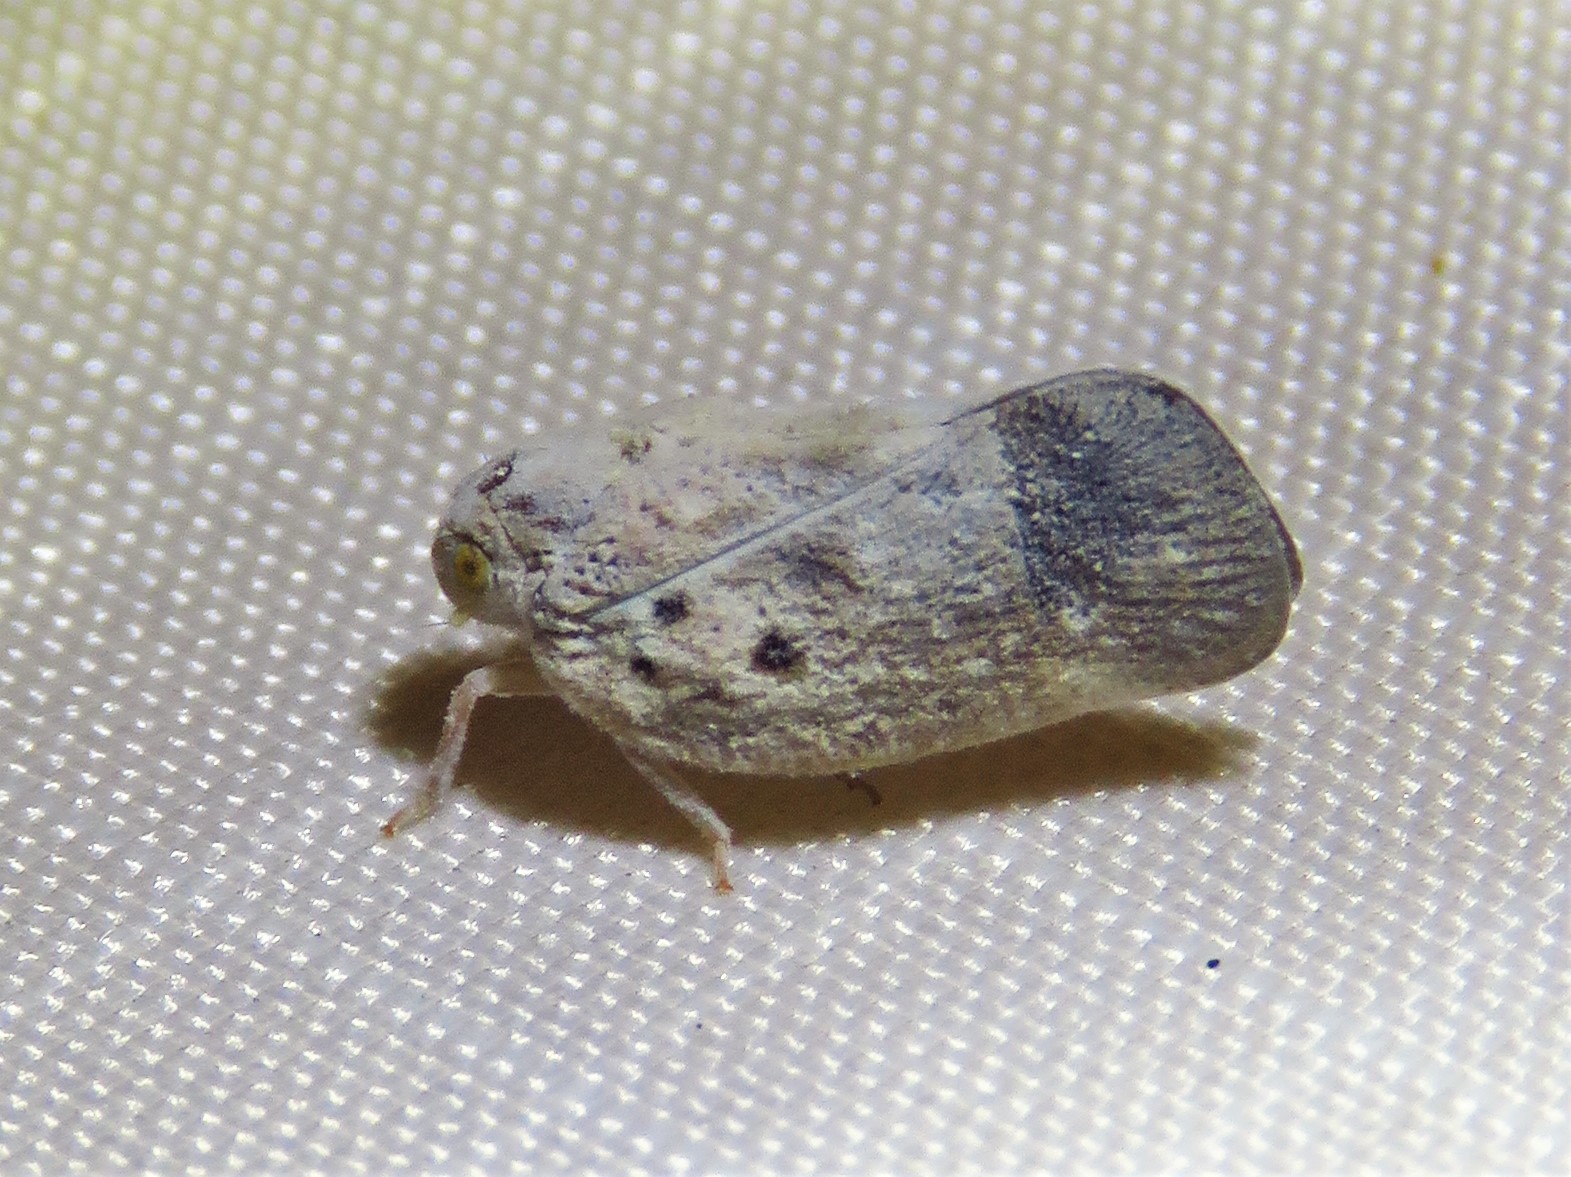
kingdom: Animalia
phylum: Arthropoda
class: Insecta
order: Hemiptera
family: Flatidae
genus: Metcalfa
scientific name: Metcalfa pruinosa
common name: Citrus flatid planthopper
